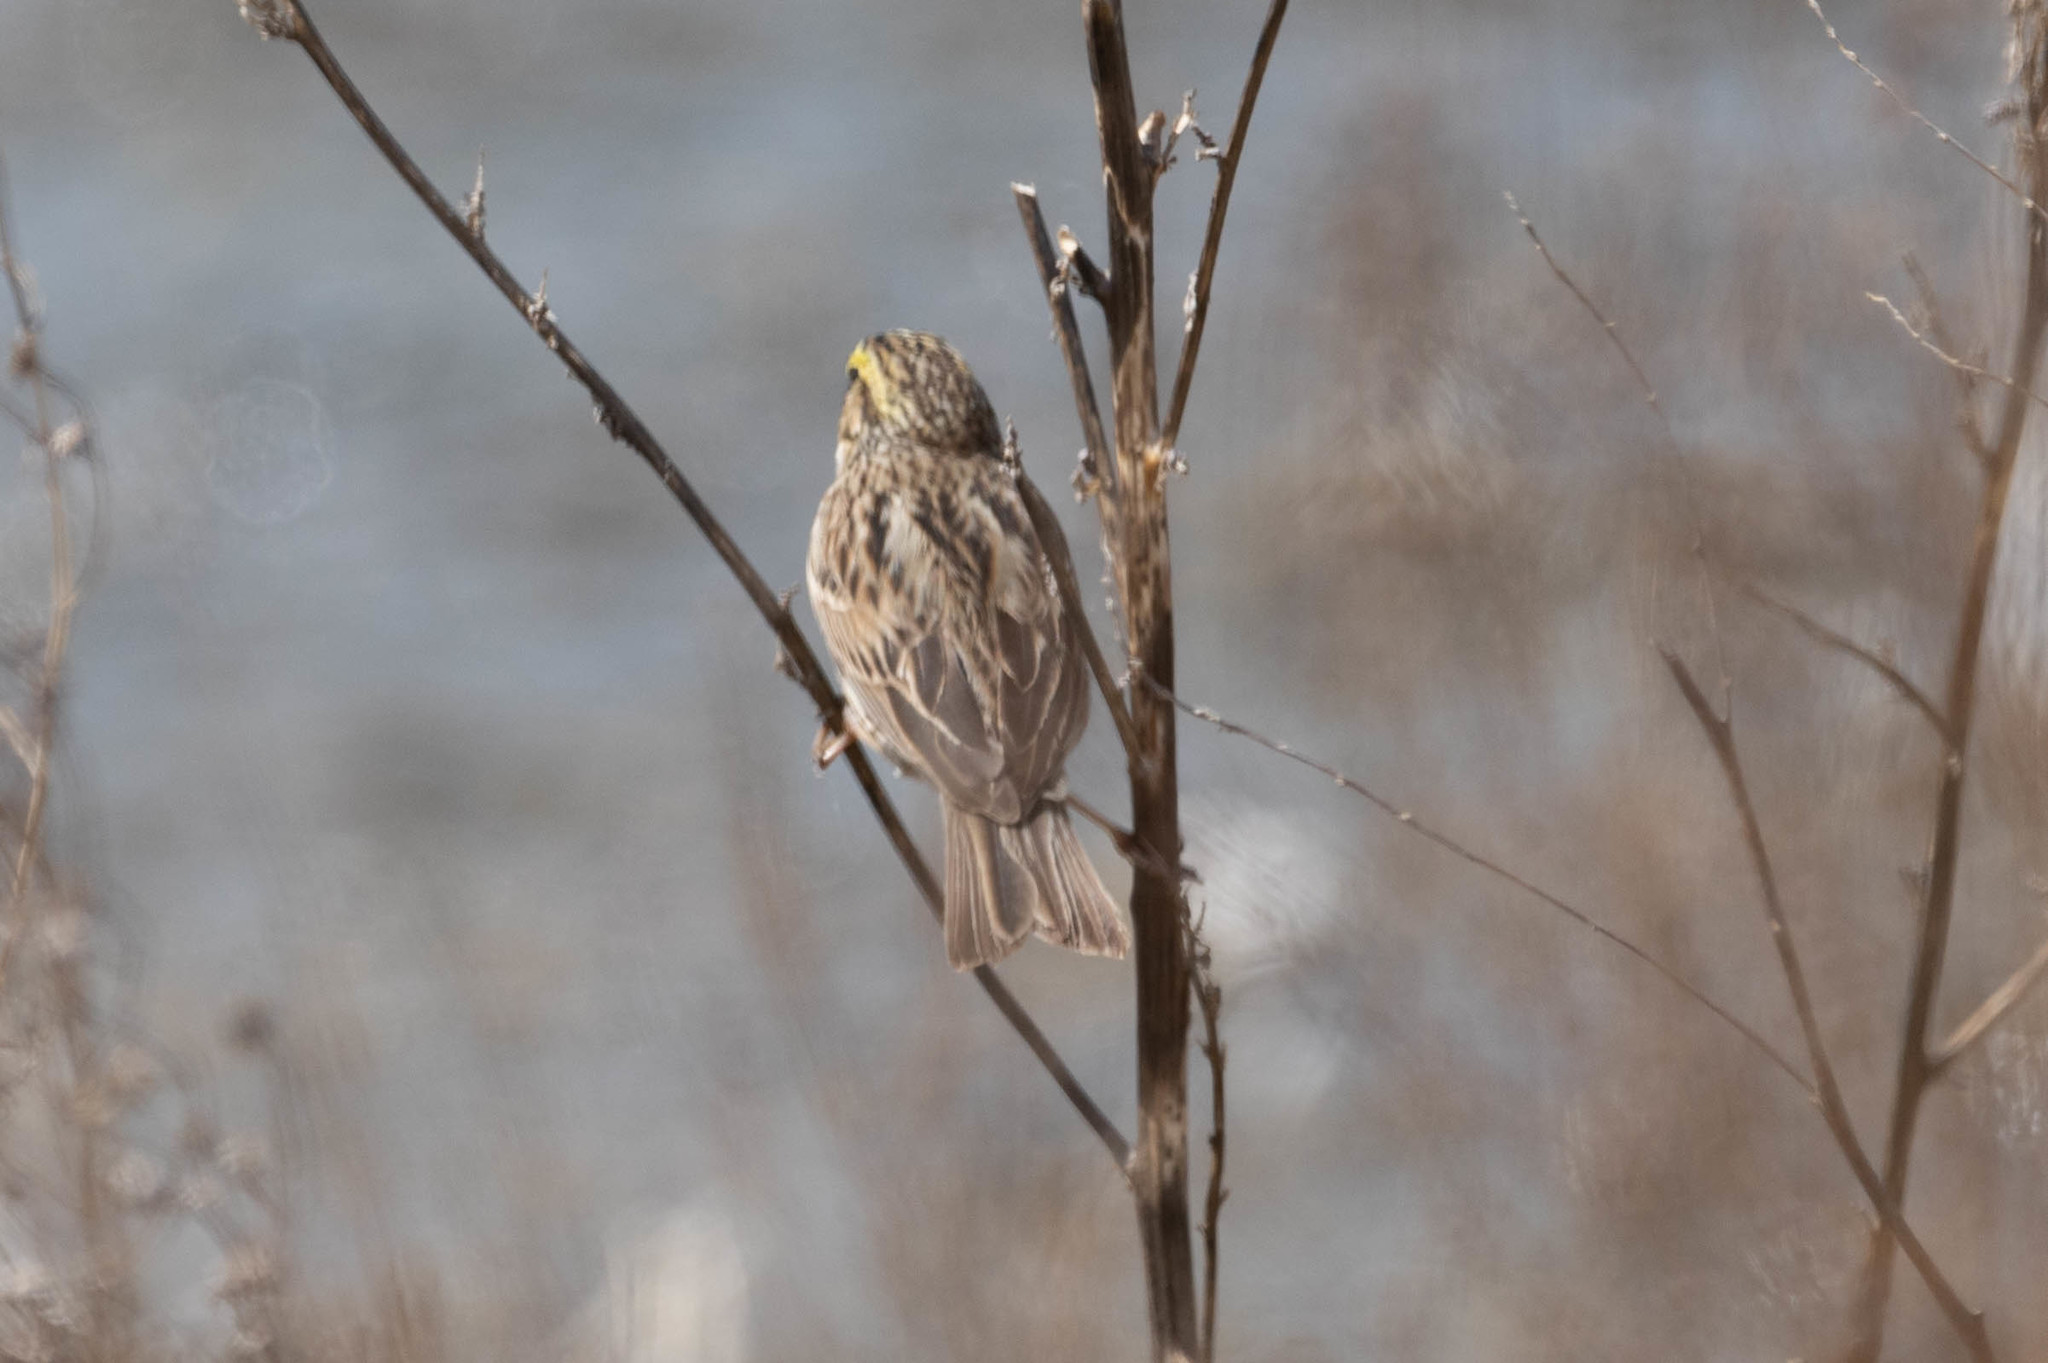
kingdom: Animalia
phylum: Chordata
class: Aves
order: Passeriformes
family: Passerellidae
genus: Passerculus
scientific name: Passerculus sandwichensis
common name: Savannah sparrow
